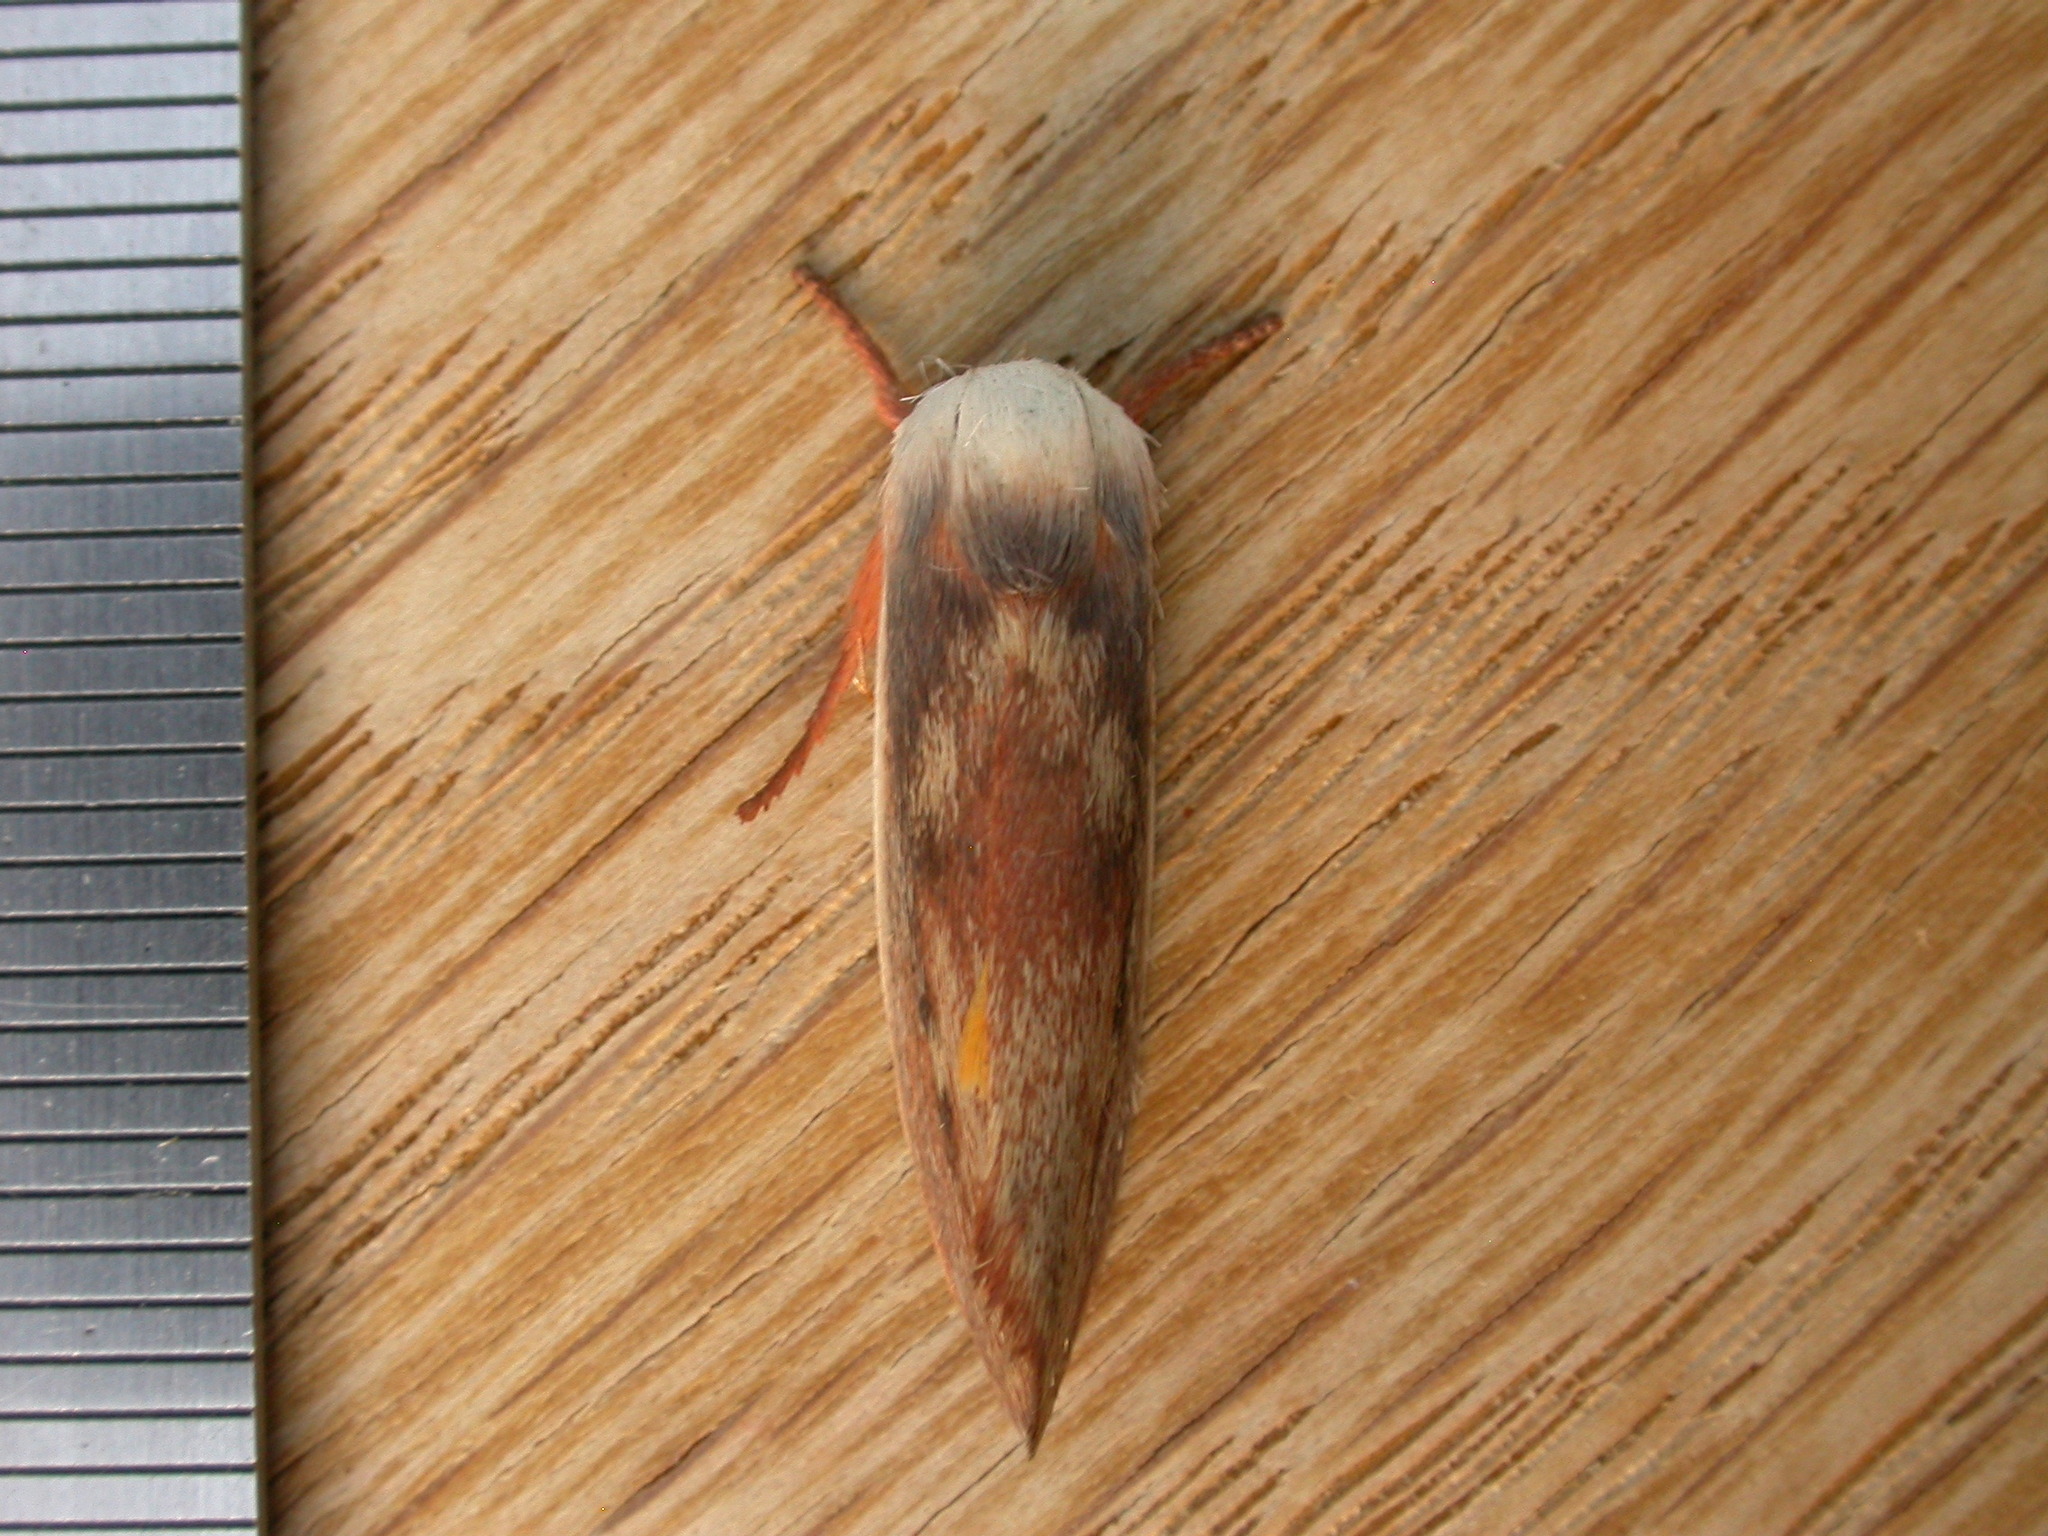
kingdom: Animalia
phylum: Arthropoda
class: Insecta
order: Lepidoptera
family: Xyloryctidae
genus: Cryptophasa
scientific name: Cryptophasa rubescens
